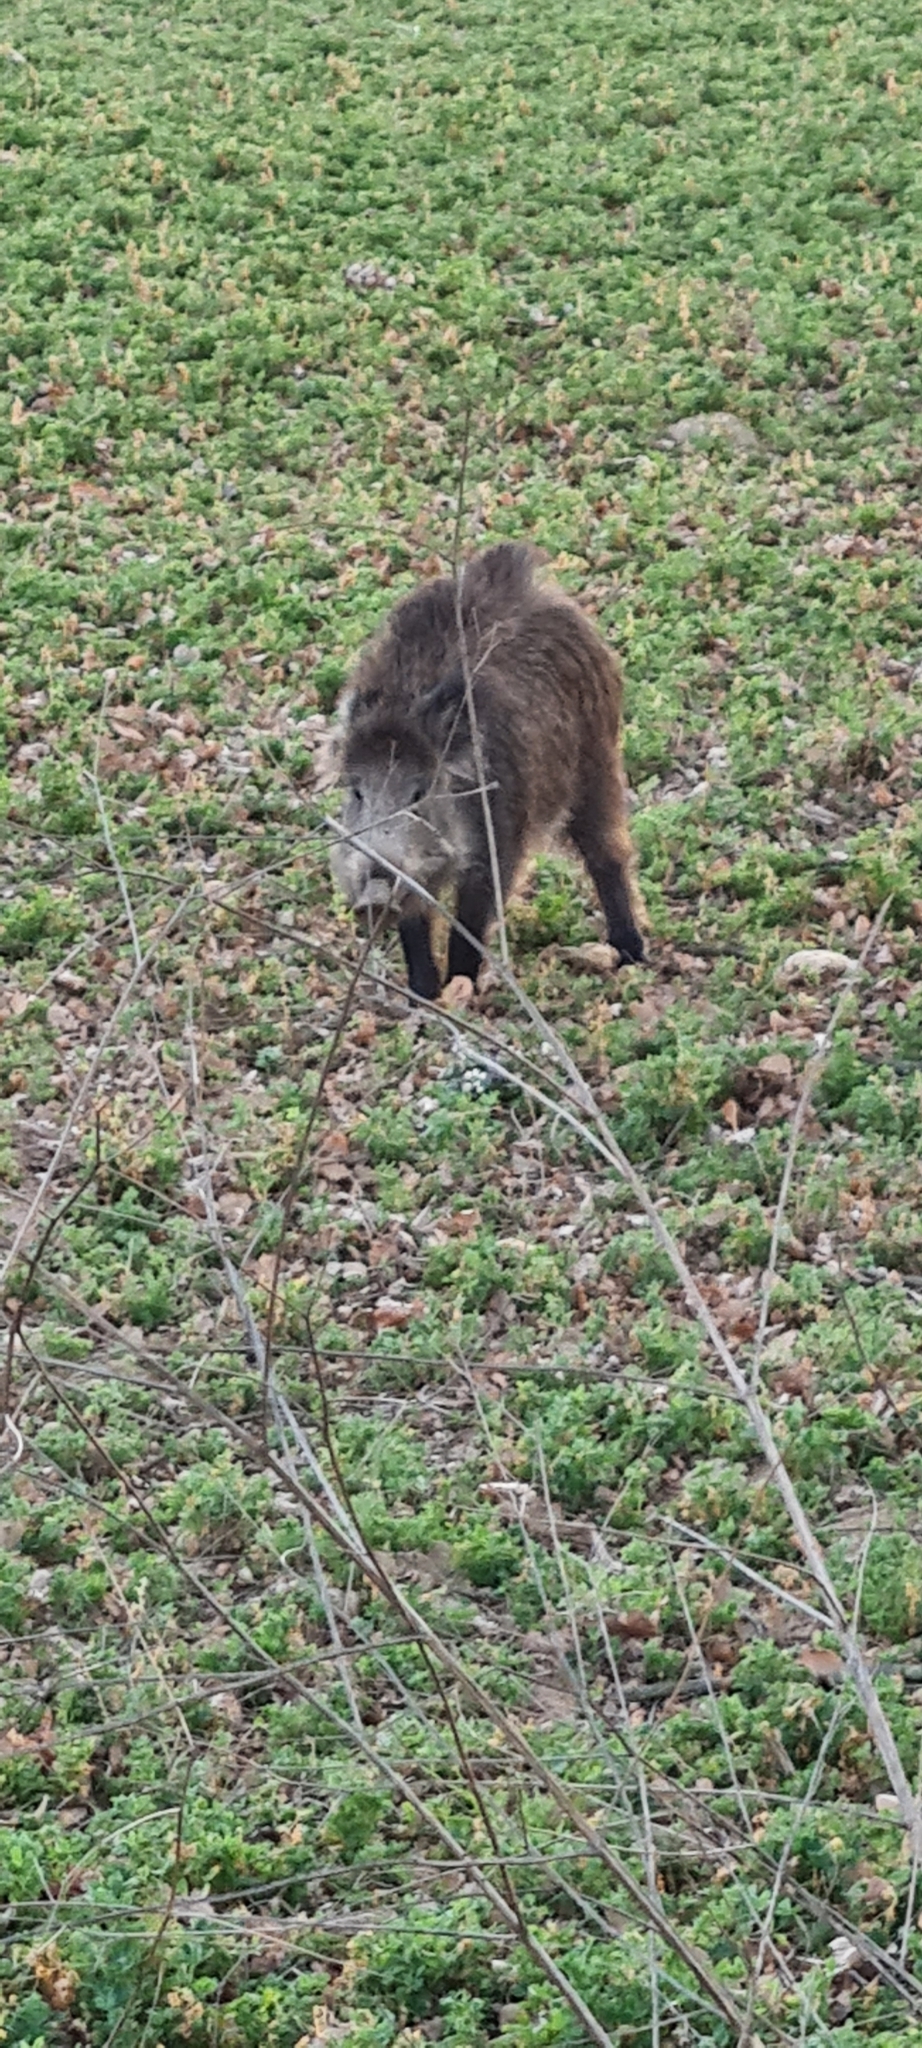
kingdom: Animalia
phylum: Chordata
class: Mammalia
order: Artiodactyla
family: Suidae
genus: Sus
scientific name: Sus scrofa
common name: Wild boar
